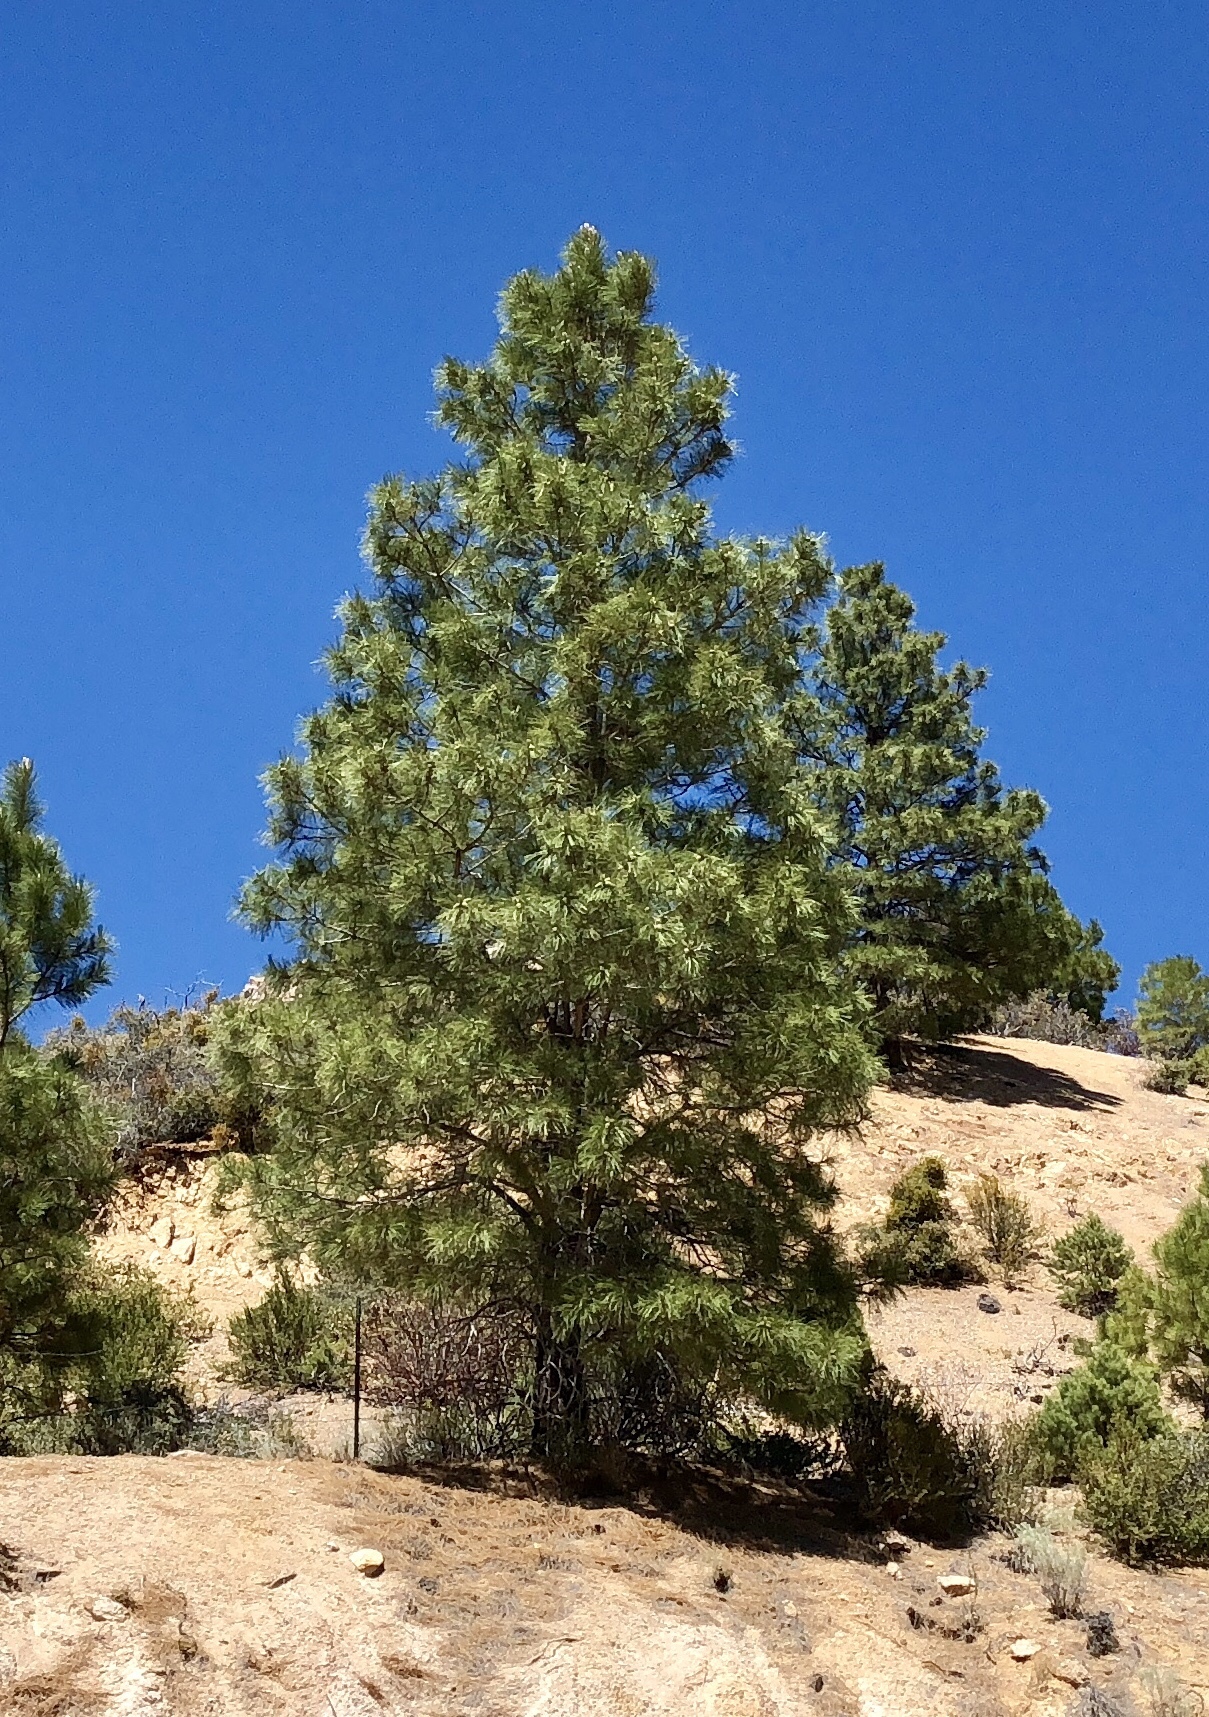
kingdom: Plantae
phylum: Tracheophyta
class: Pinopsida
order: Pinales
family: Pinaceae
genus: Pinus
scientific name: Pinus ponderosa
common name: Western yellow-pine
